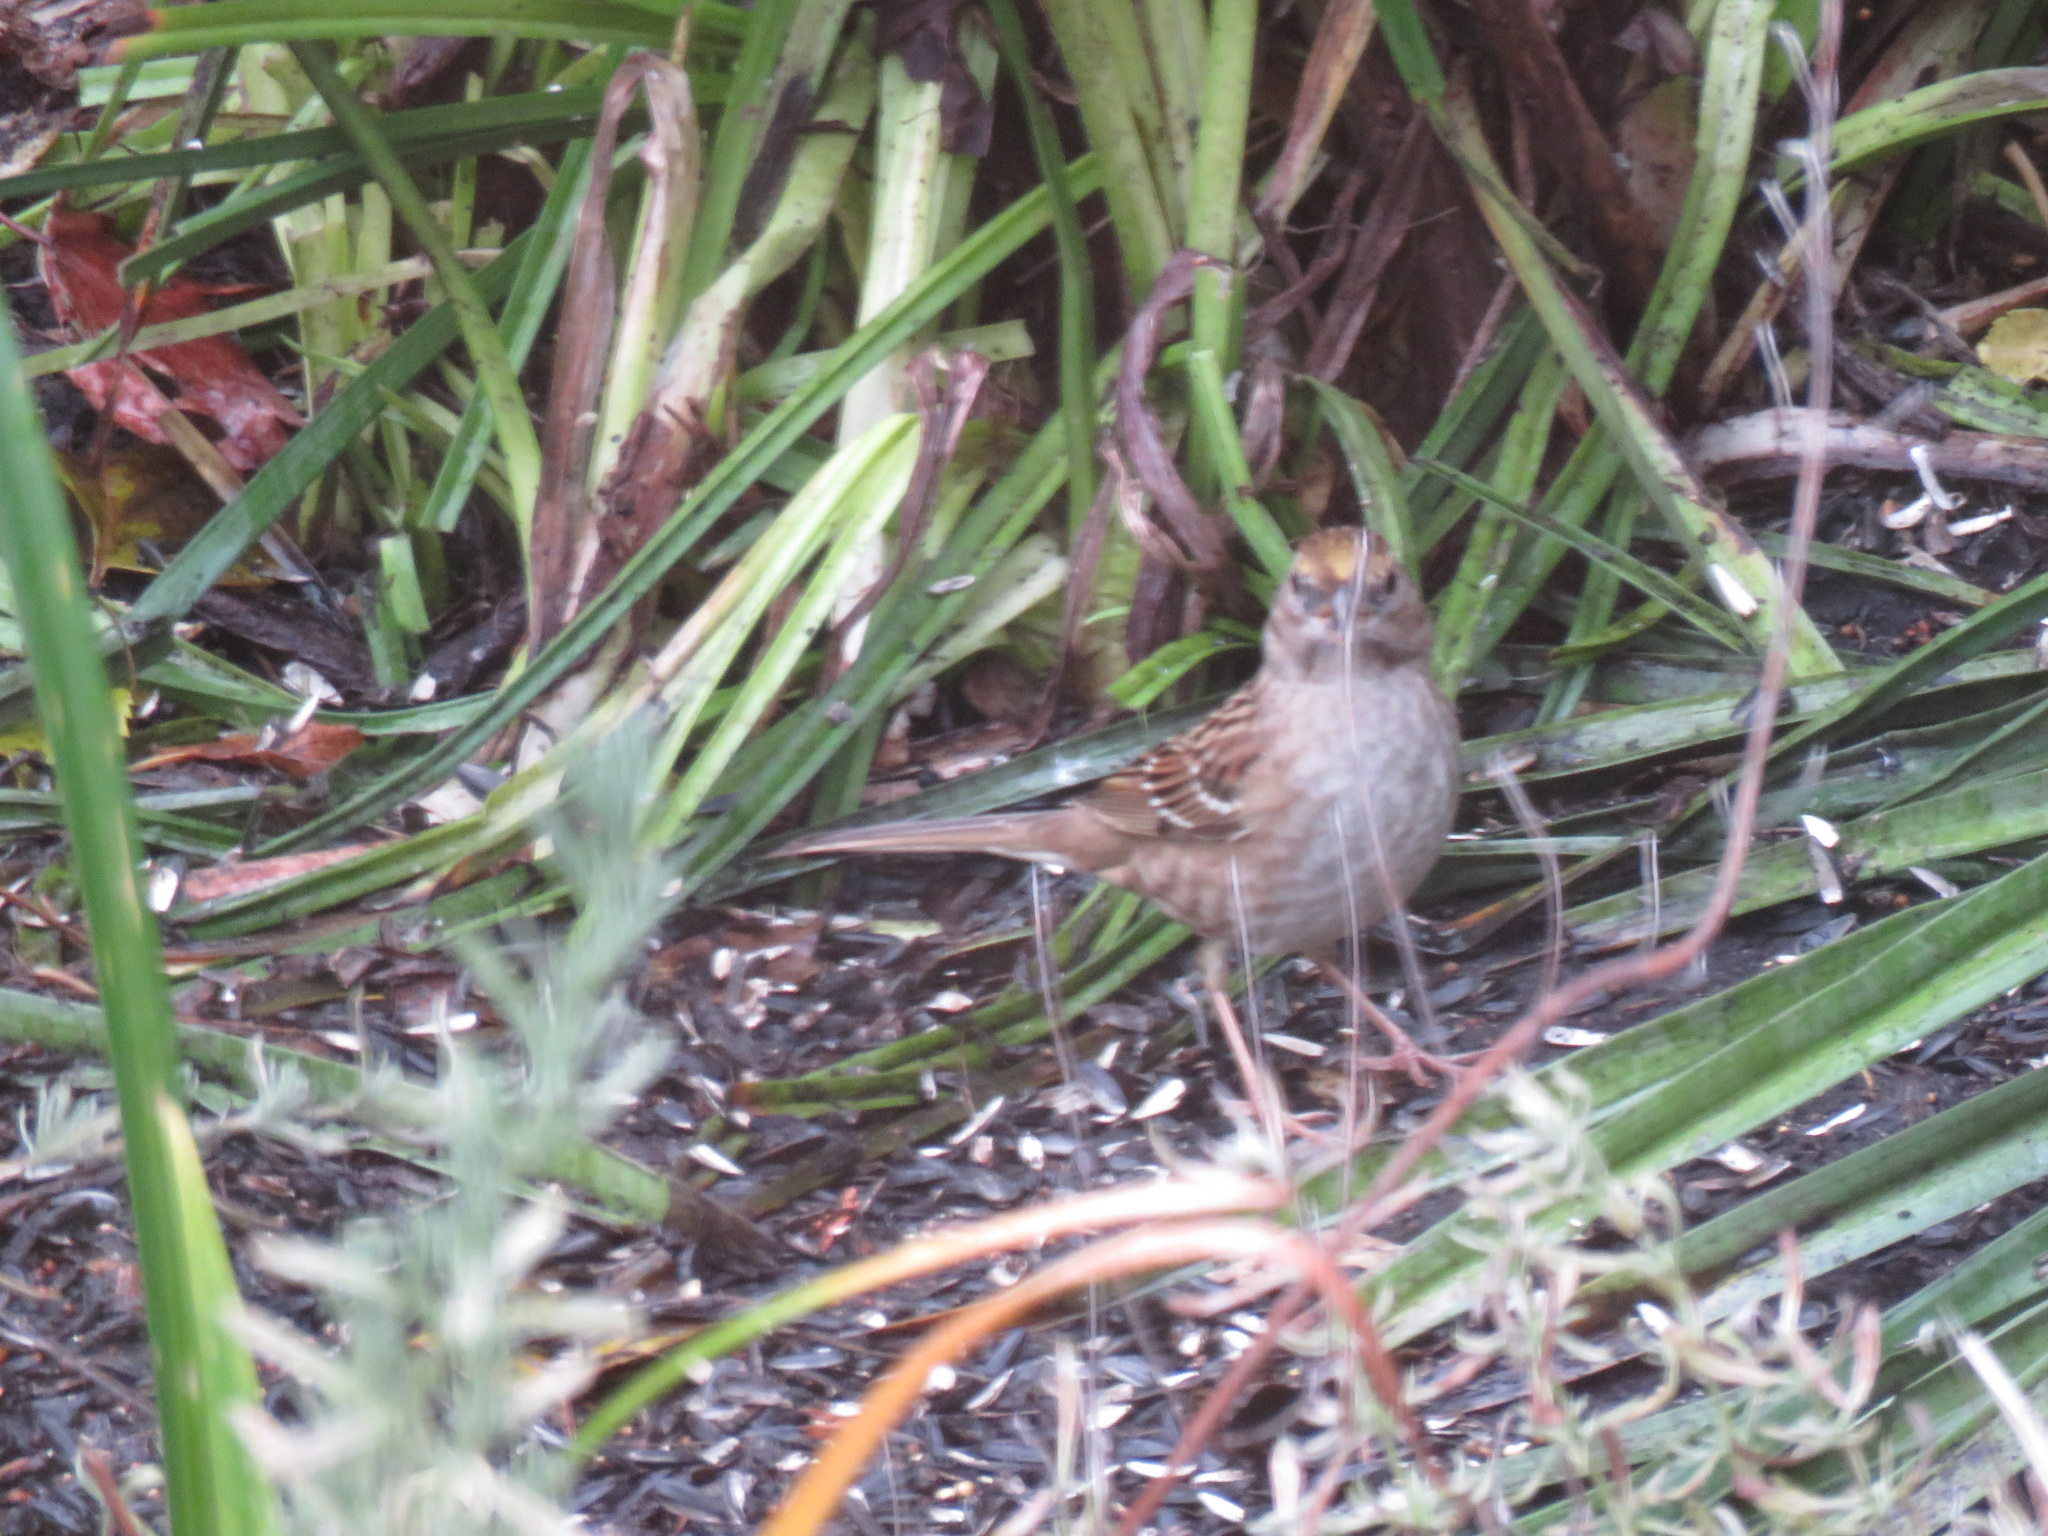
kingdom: Animalia
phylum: Chordata
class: Aves
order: Passeriformes
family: Passerellidae
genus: Zonotrichia
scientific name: Zonotrichia atricapilla
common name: Golden-crowned sparrow
